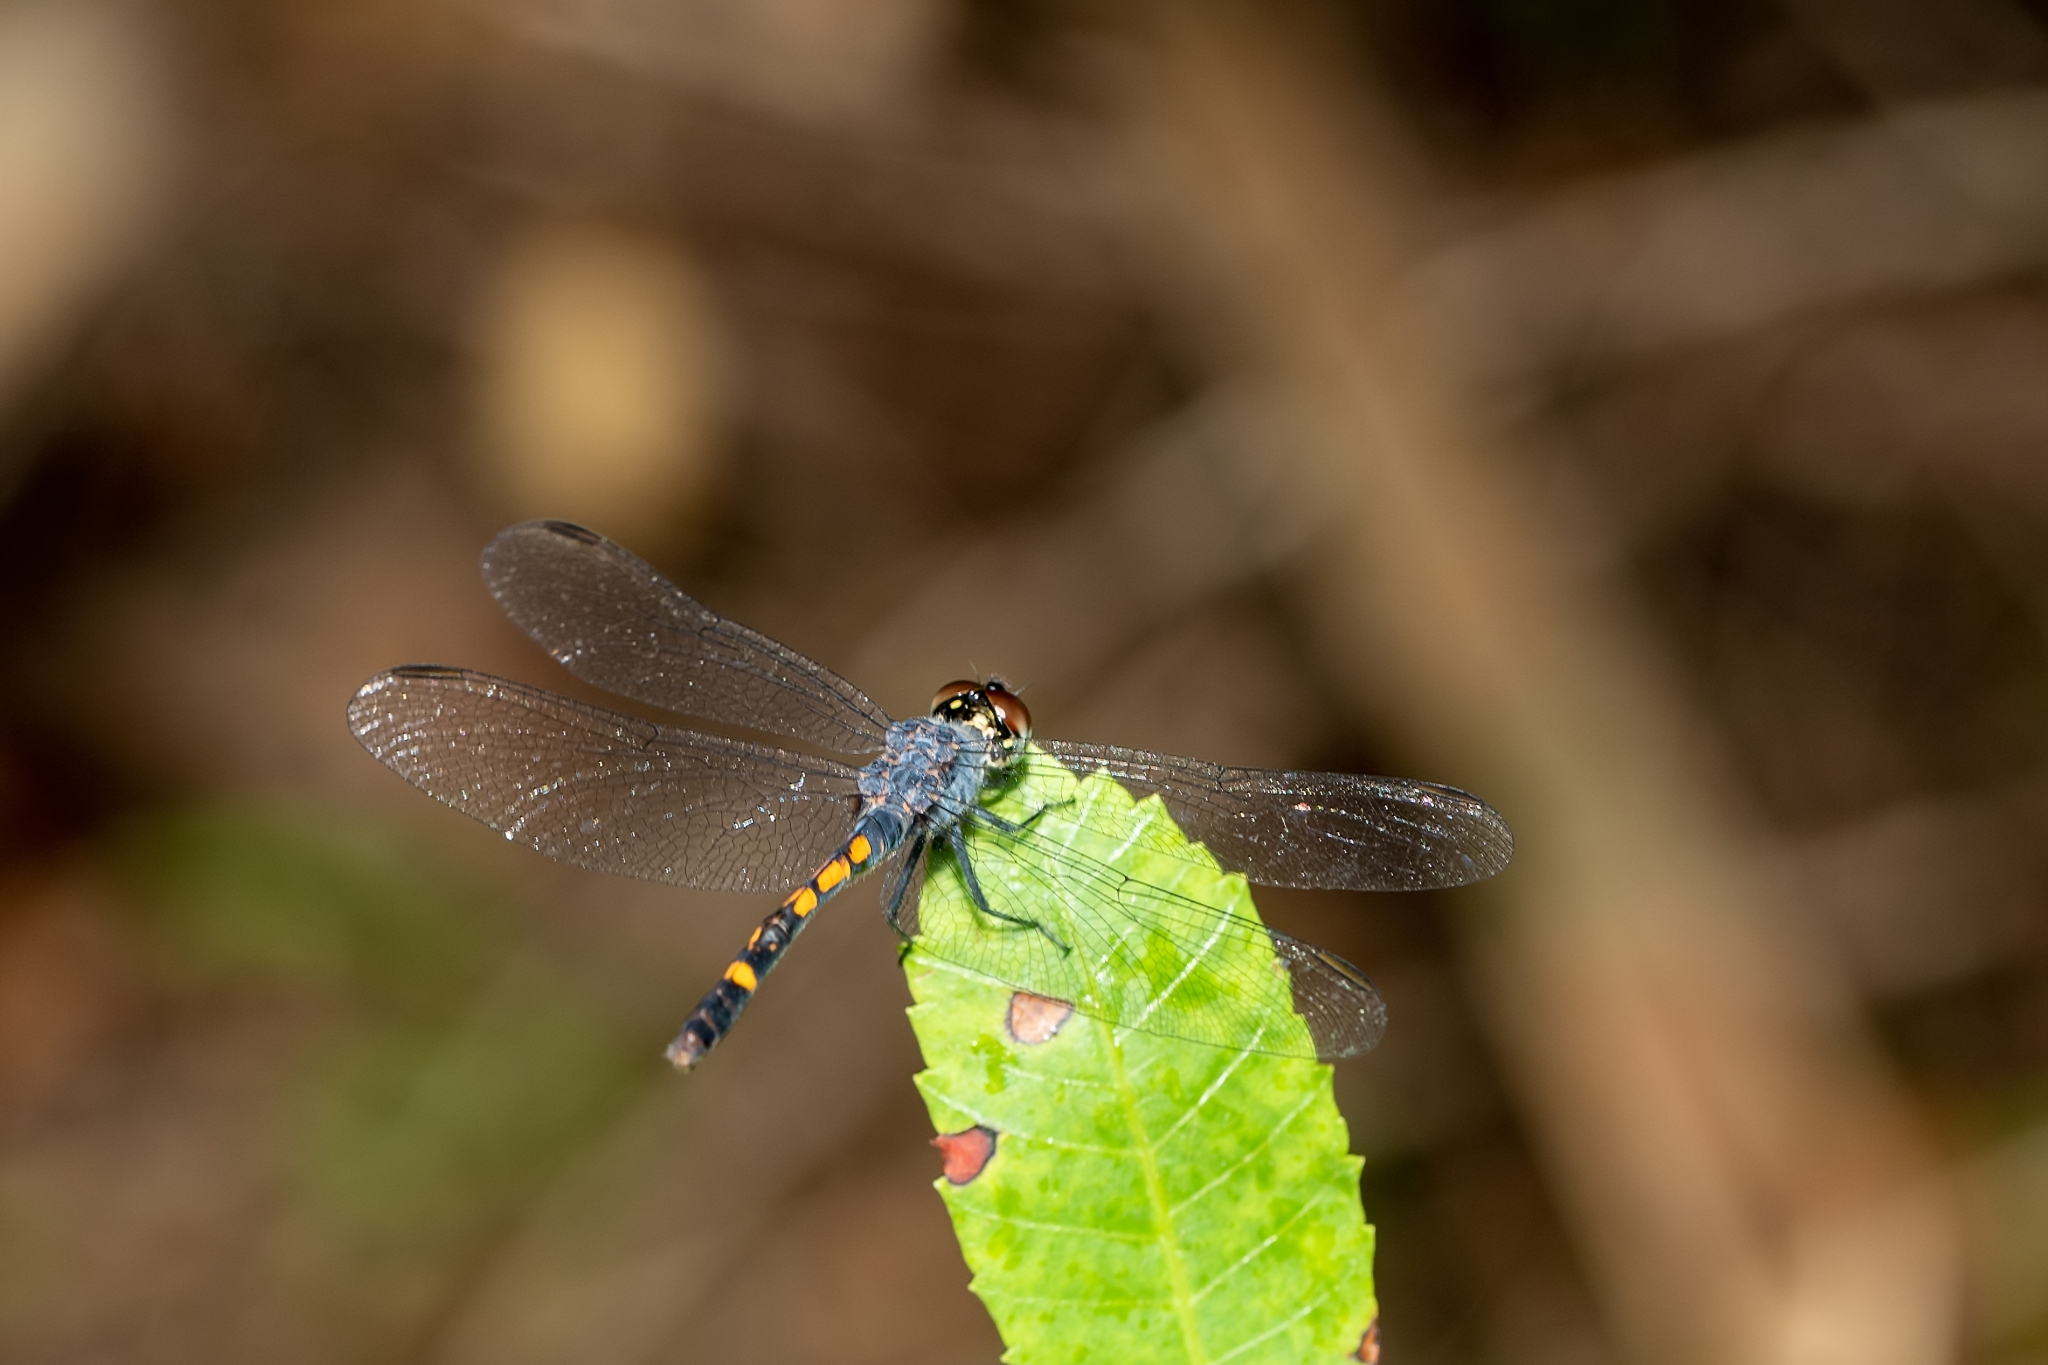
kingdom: Animalia
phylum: Arthropoda
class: Insecta
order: Odonata
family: Libellulidae
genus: Erythrodiplax
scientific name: Erythrodiplax berenice
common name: Seaside dragonlet
